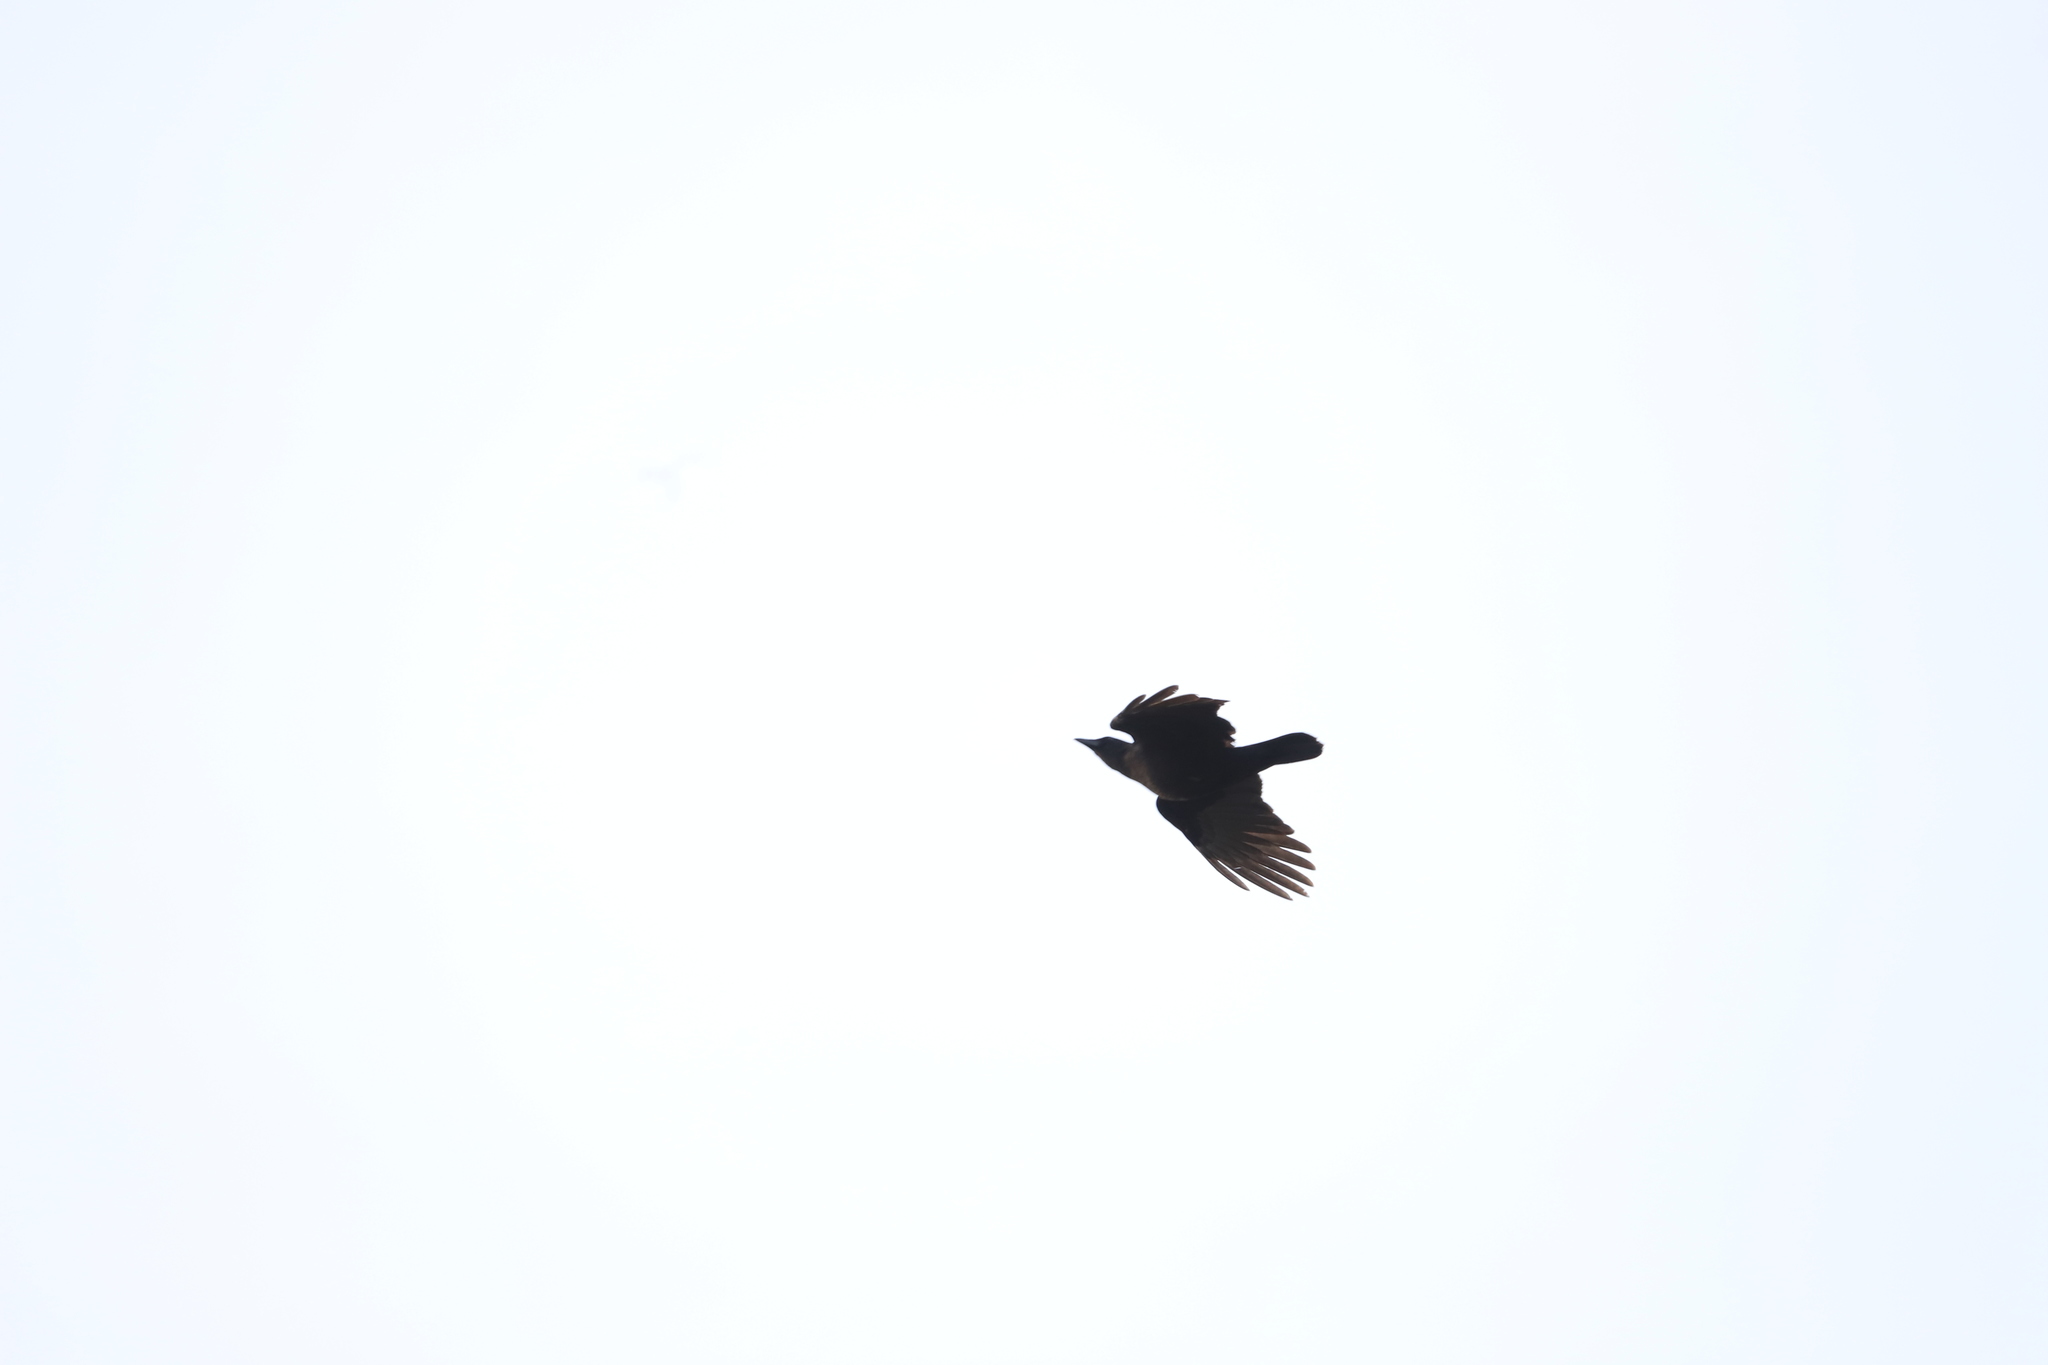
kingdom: Animalia
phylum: Chordata
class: Aves
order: Passeriformes
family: Corvidae
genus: Corvus
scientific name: Corvus brachyrhynchos
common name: American crow
